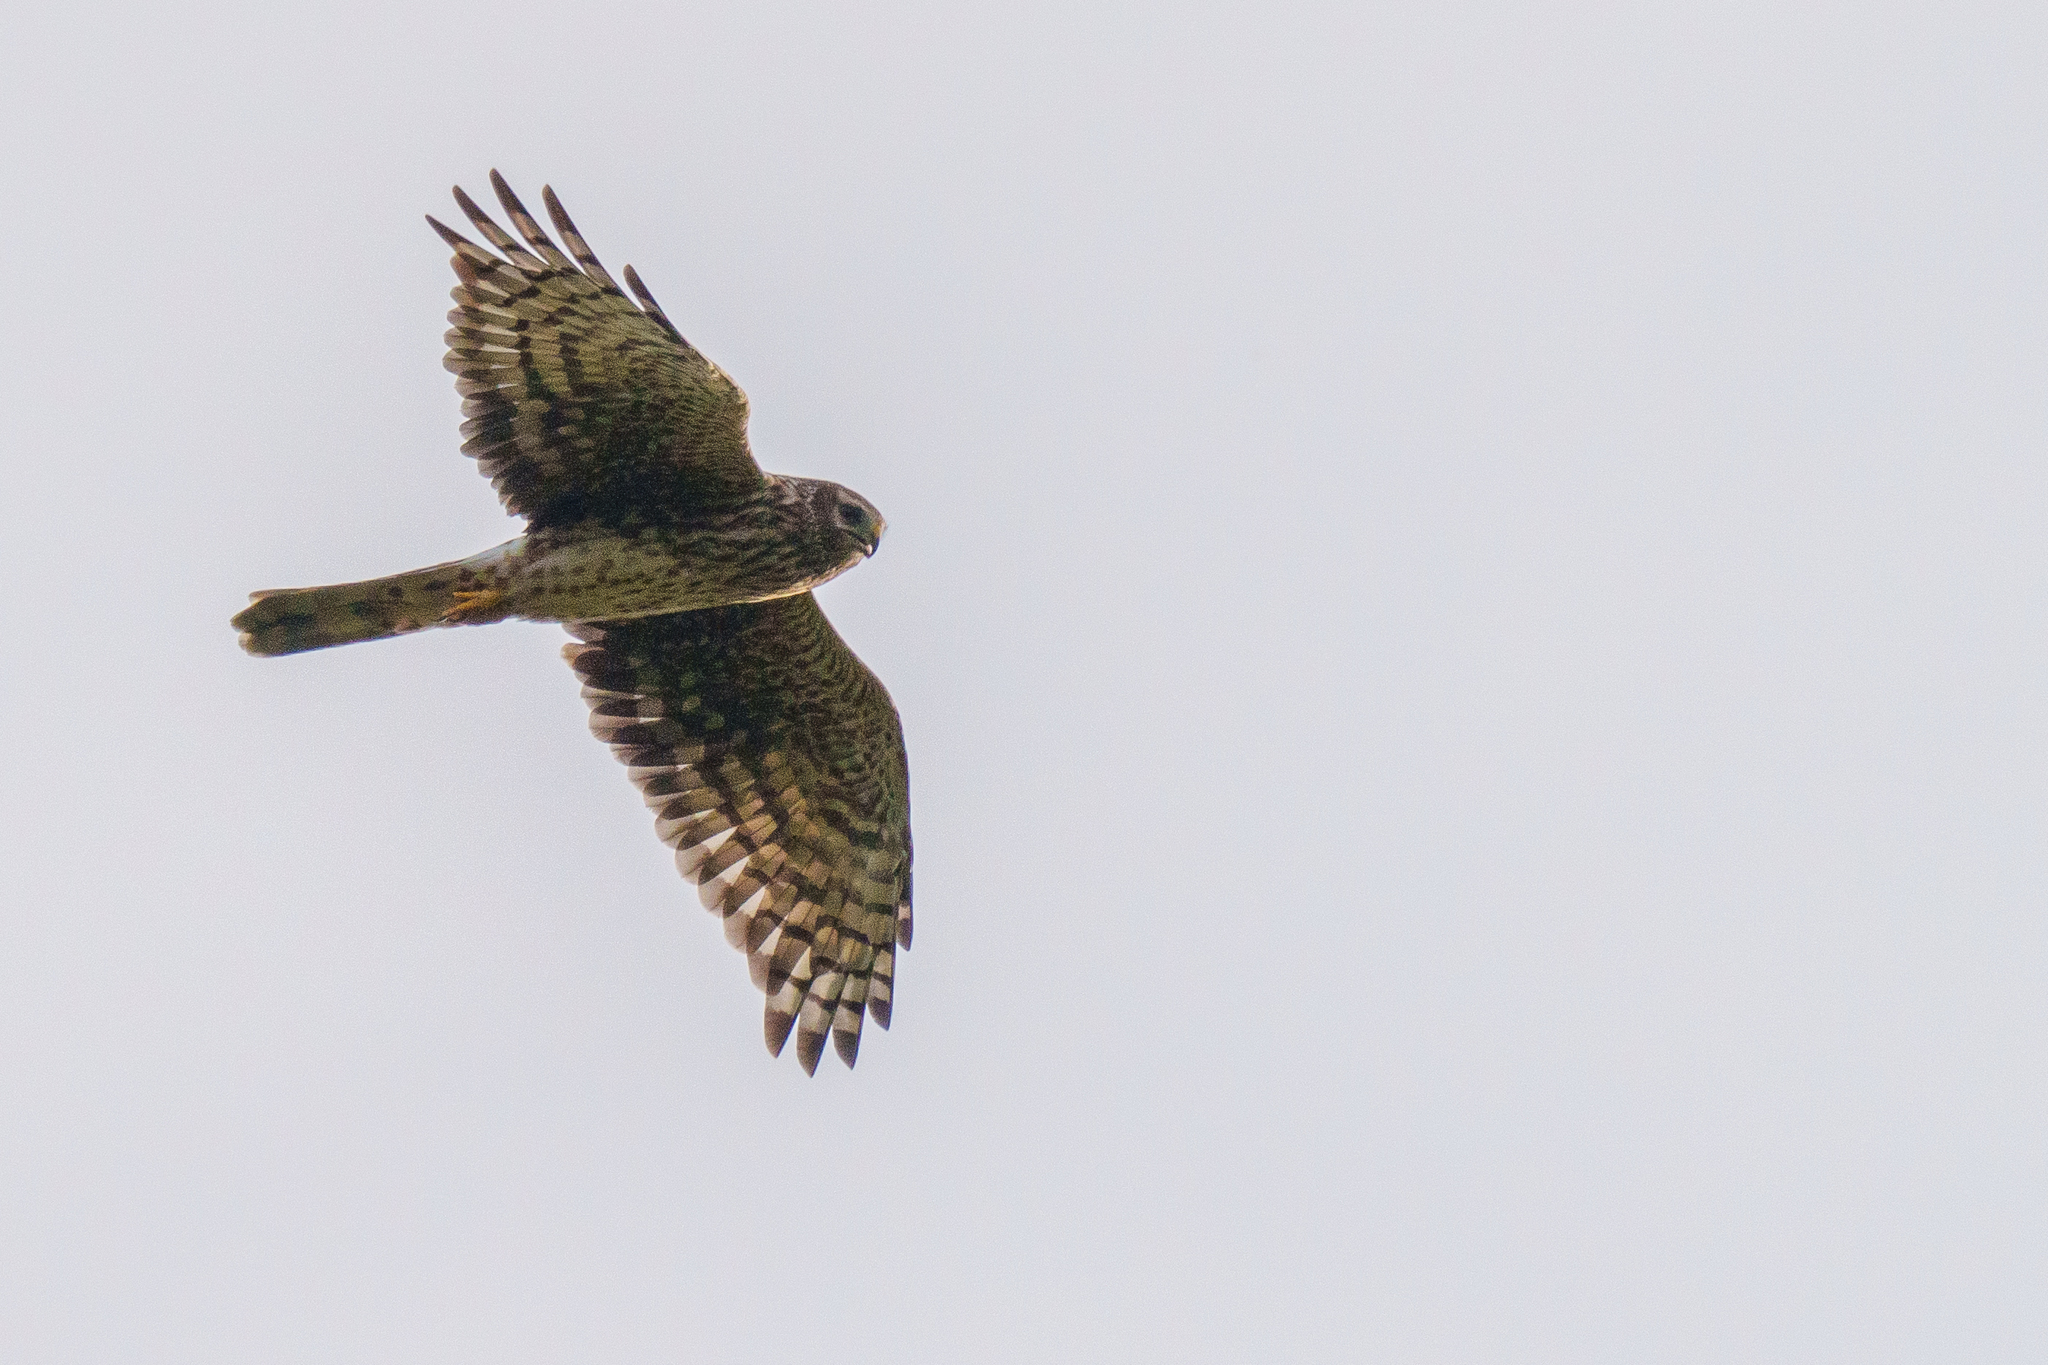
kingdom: Animalia
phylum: Chordata
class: Aves
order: Accipitriformes
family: Accipitridae
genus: Circus
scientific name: Circus cyaneus
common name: Hen harrier
